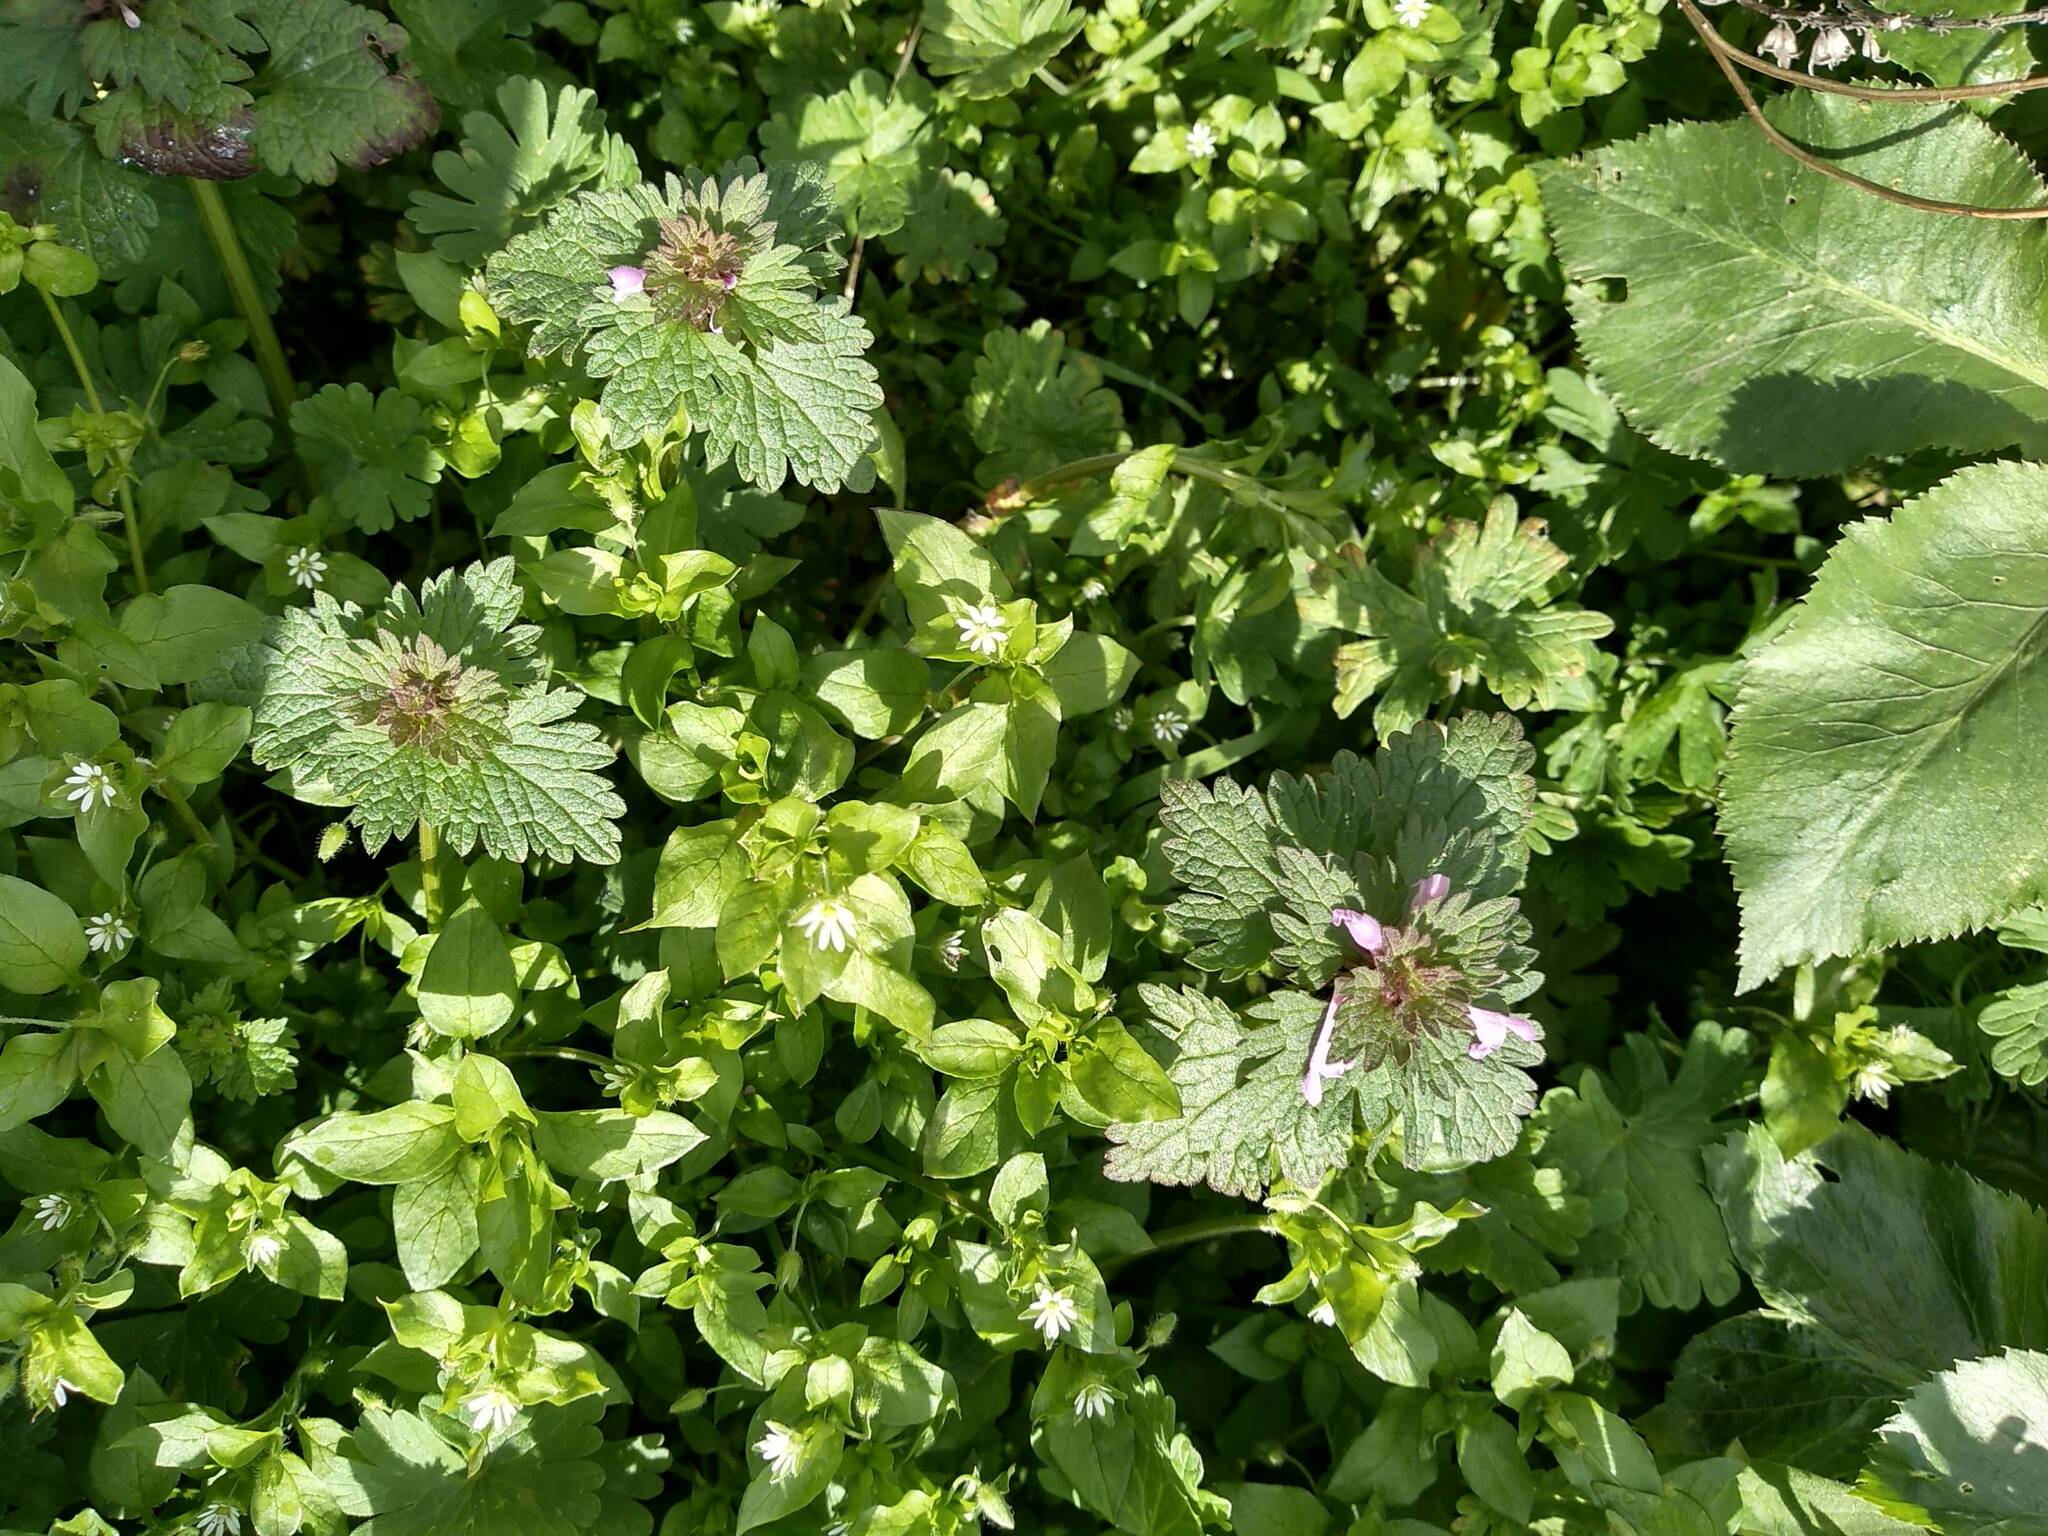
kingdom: Plantae
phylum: Tracheophyta
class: Magnoliopsida
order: Lamiales
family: Lamiaceae
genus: Lamium
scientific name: Lamium hybridum
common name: Cut-leaved dead-nettle
